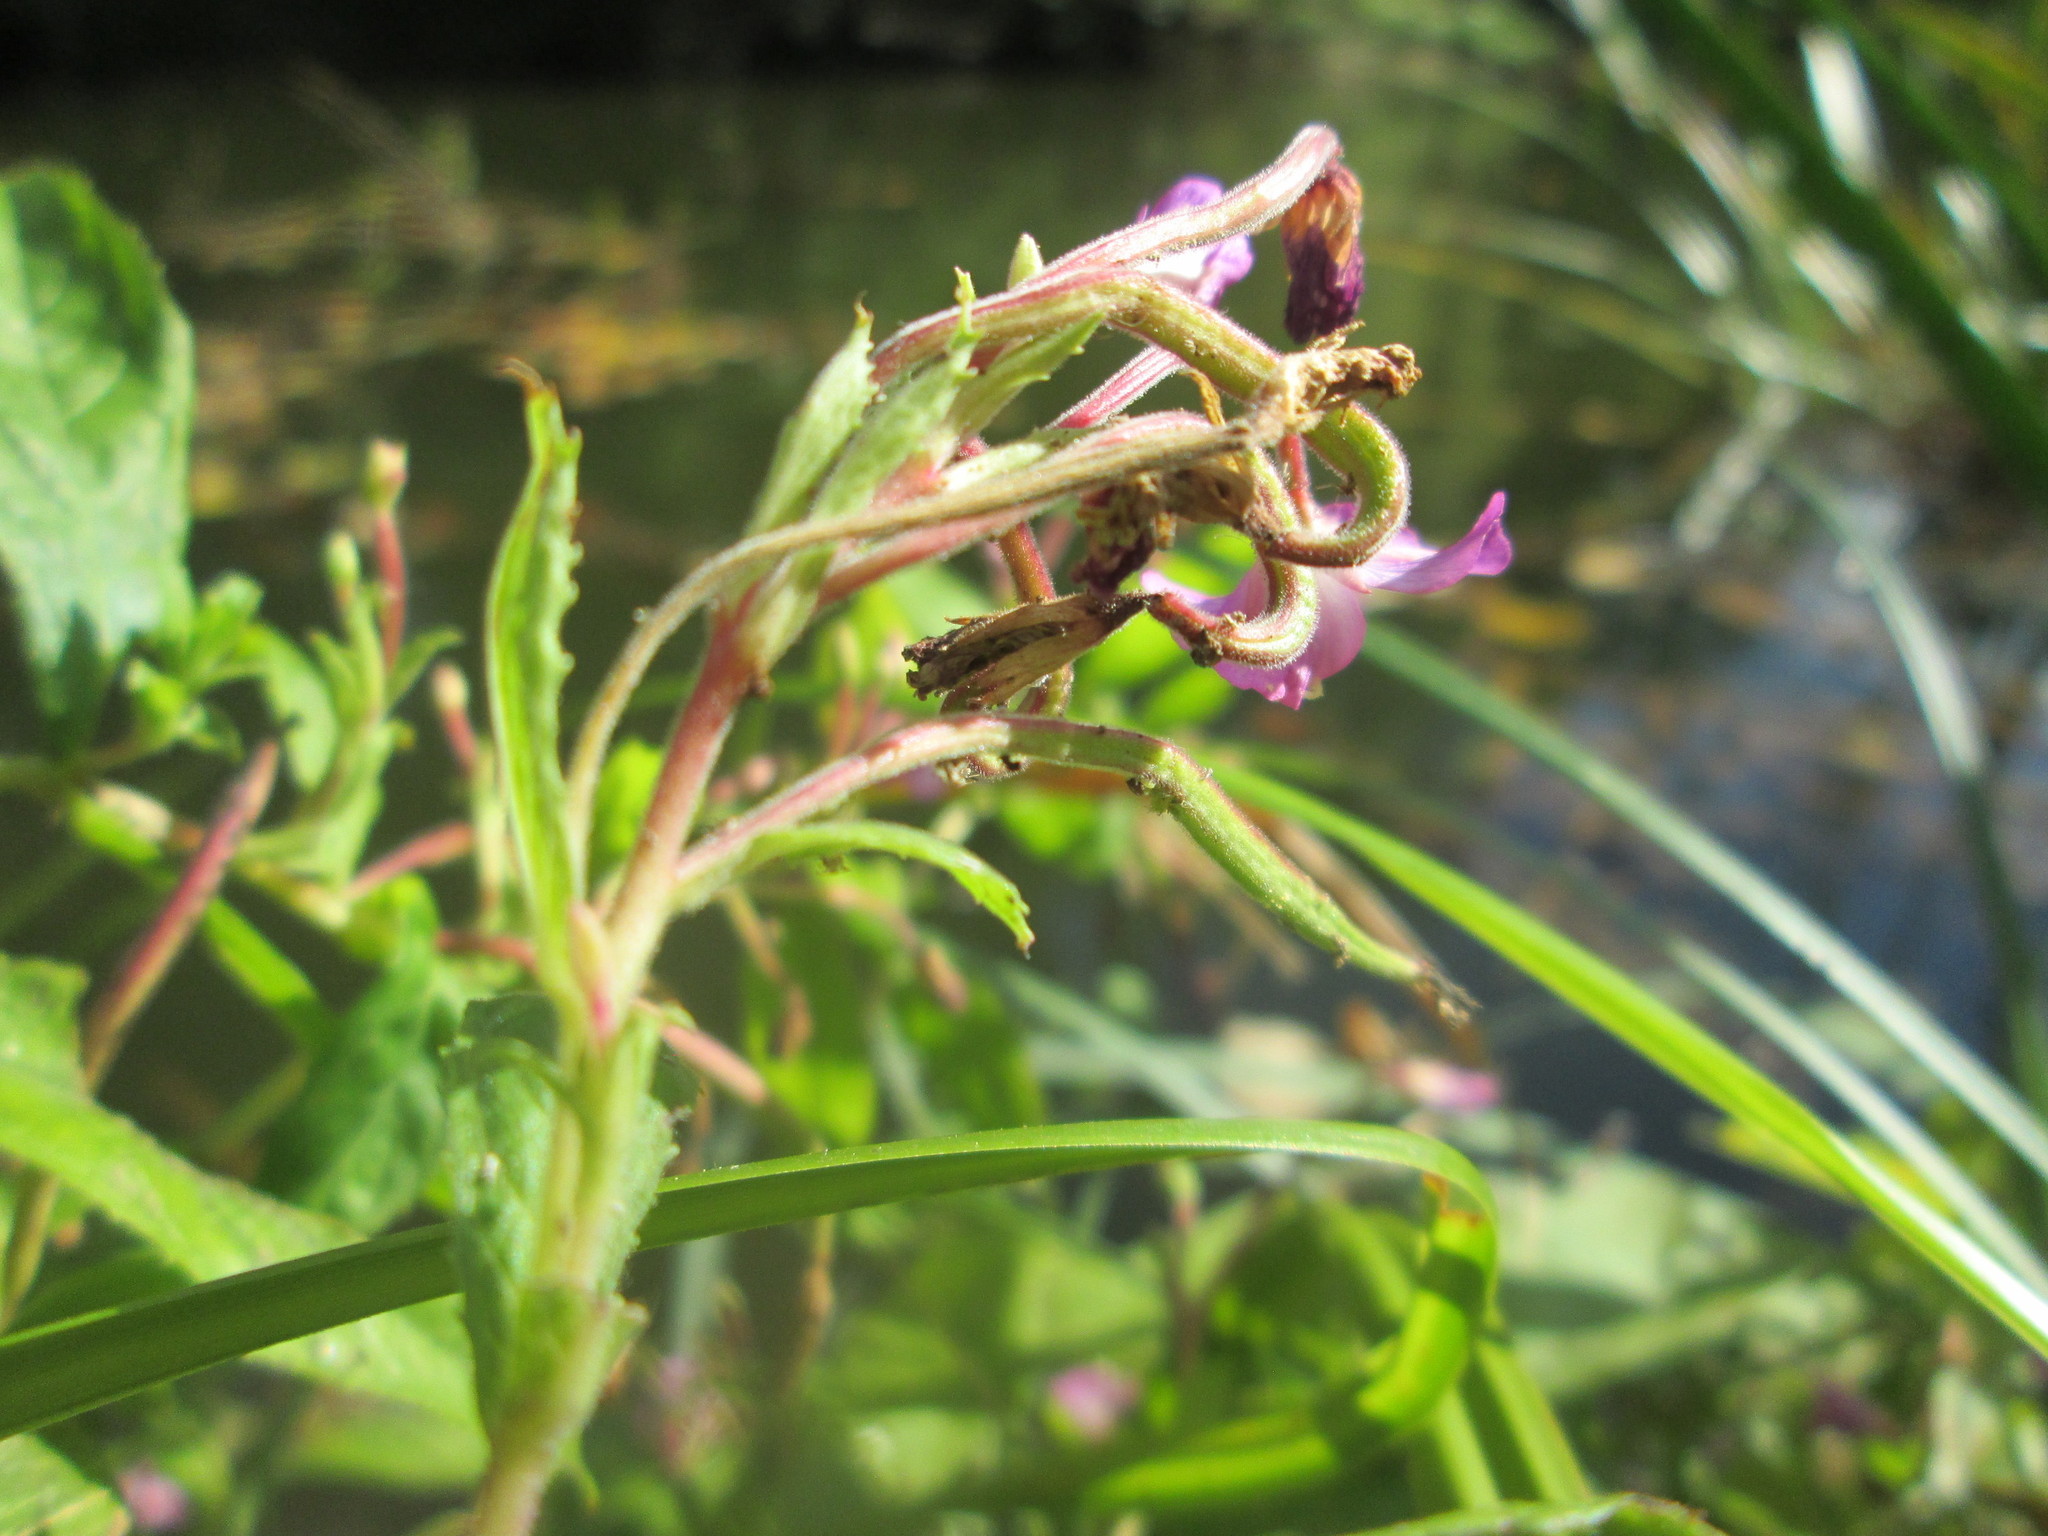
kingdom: Plantae
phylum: Tracheophyta
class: Magnoliopsida
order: Myrtales
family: Onagraceae
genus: Epilobium
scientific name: Epilobium hirsutum
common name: Great willowherb
